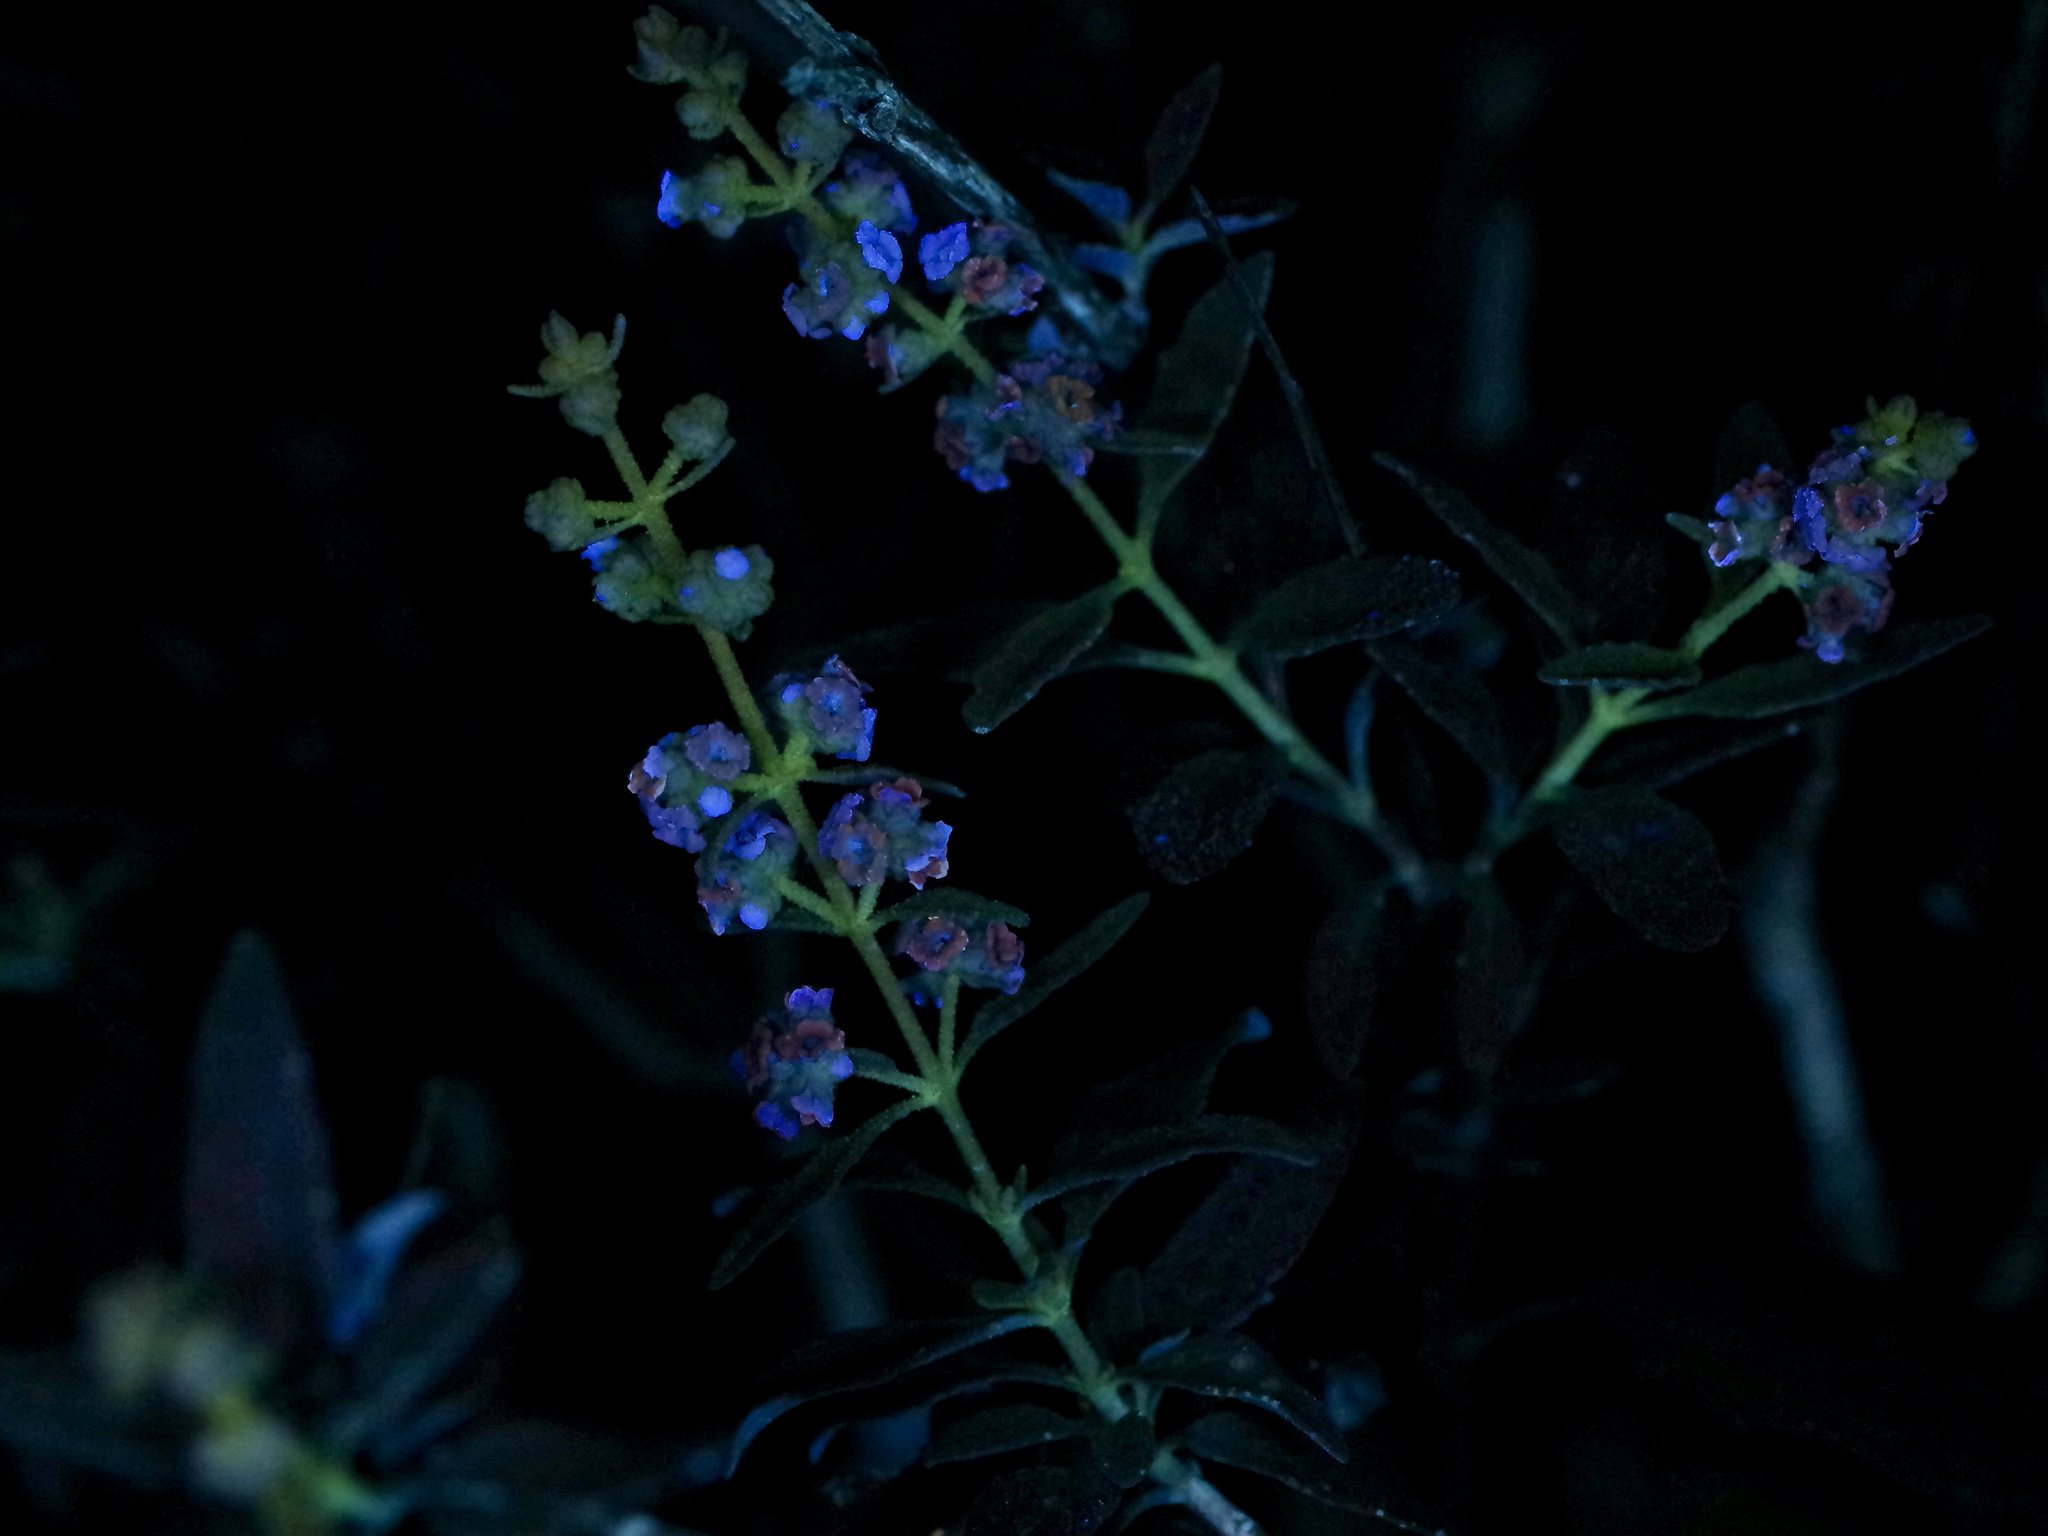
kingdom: Plantae
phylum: Tracheophyta
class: Magnoliopsida
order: Lamiales
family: Scrophulariaceae
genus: Buddleja
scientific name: Buddleja racemosa
